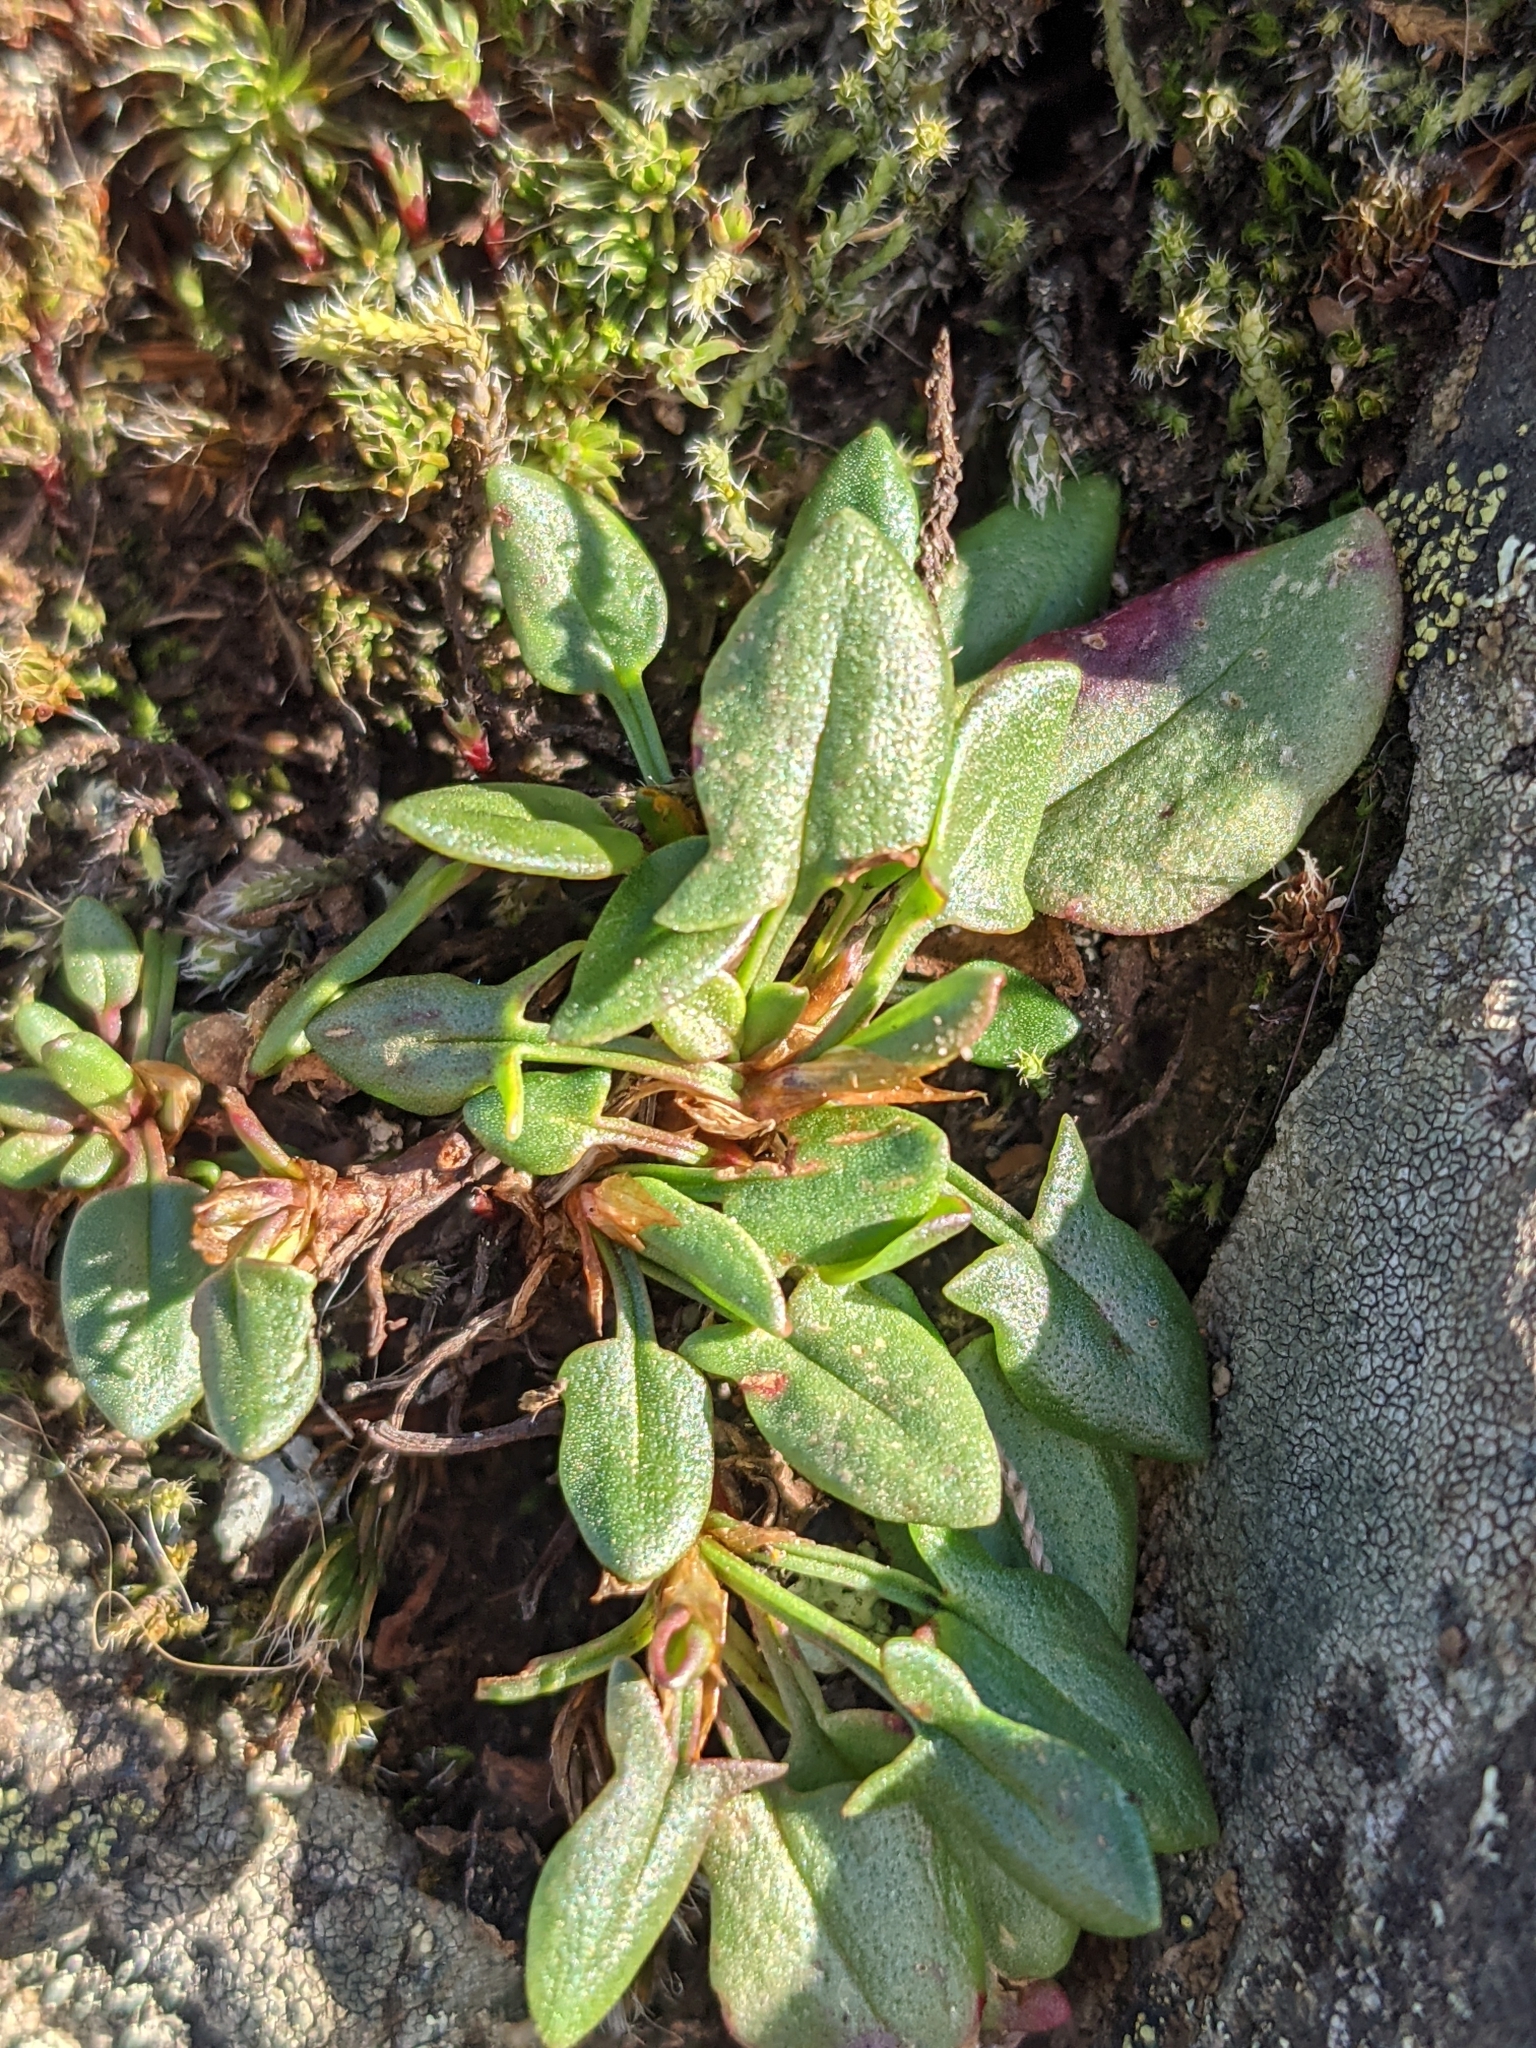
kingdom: Plantae
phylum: Tracheophyta
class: Magnoliopsida
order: Caryophyllales
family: Polygonaceae
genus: Rumex
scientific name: Rumex acetosella
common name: Common sheep sorrel
